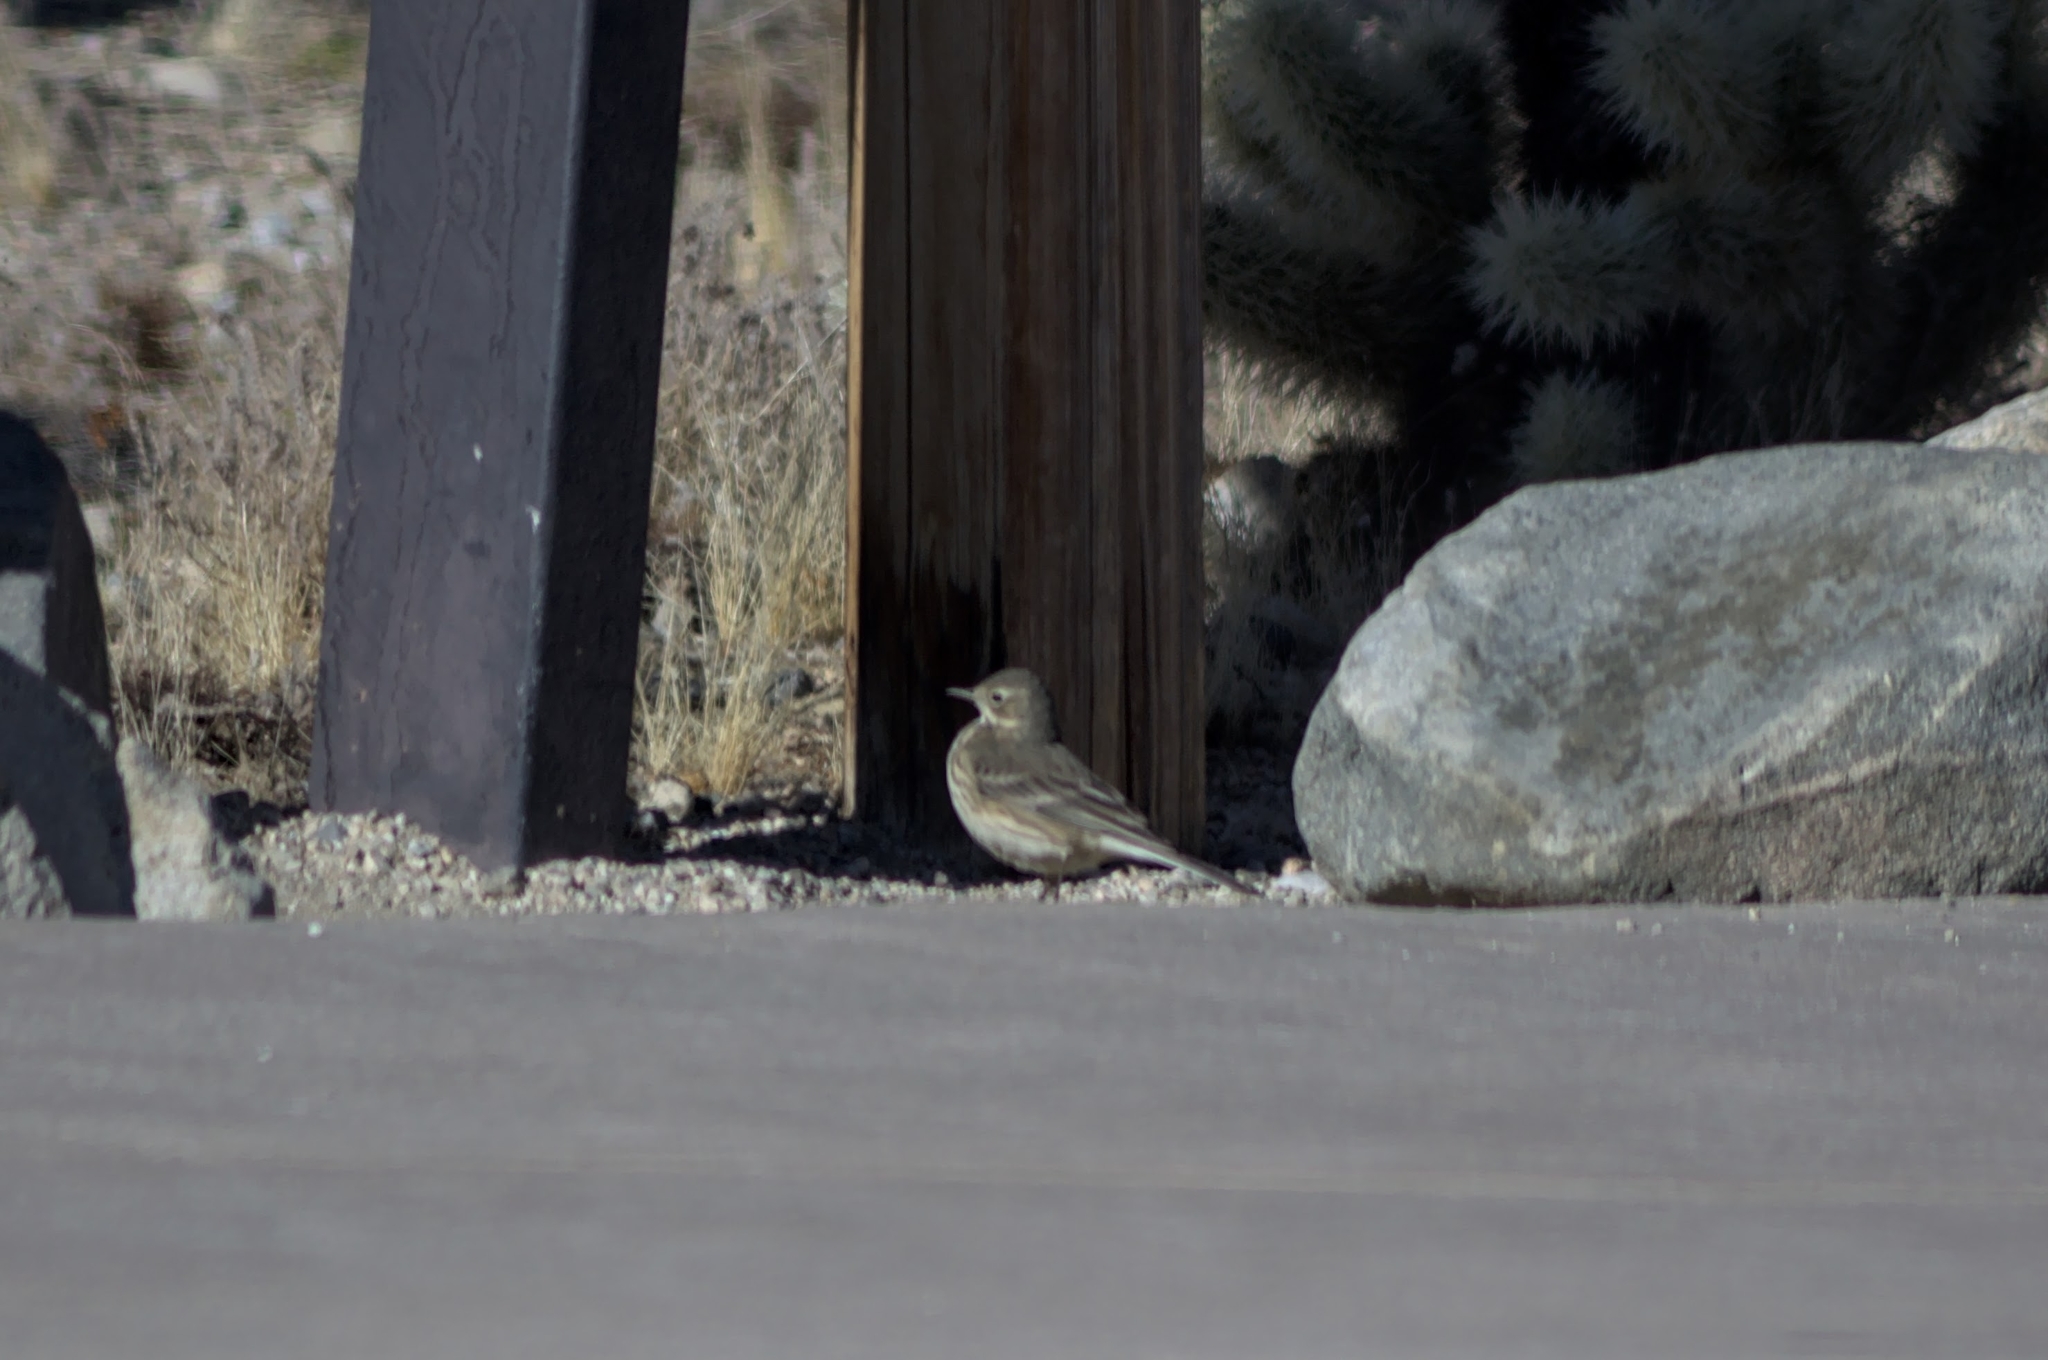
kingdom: Animalia
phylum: Chordata
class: Aves
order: Passeriformes
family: Motacillidae
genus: Anthus
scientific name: Anthus rubescens
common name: Buff-bellied pipit
